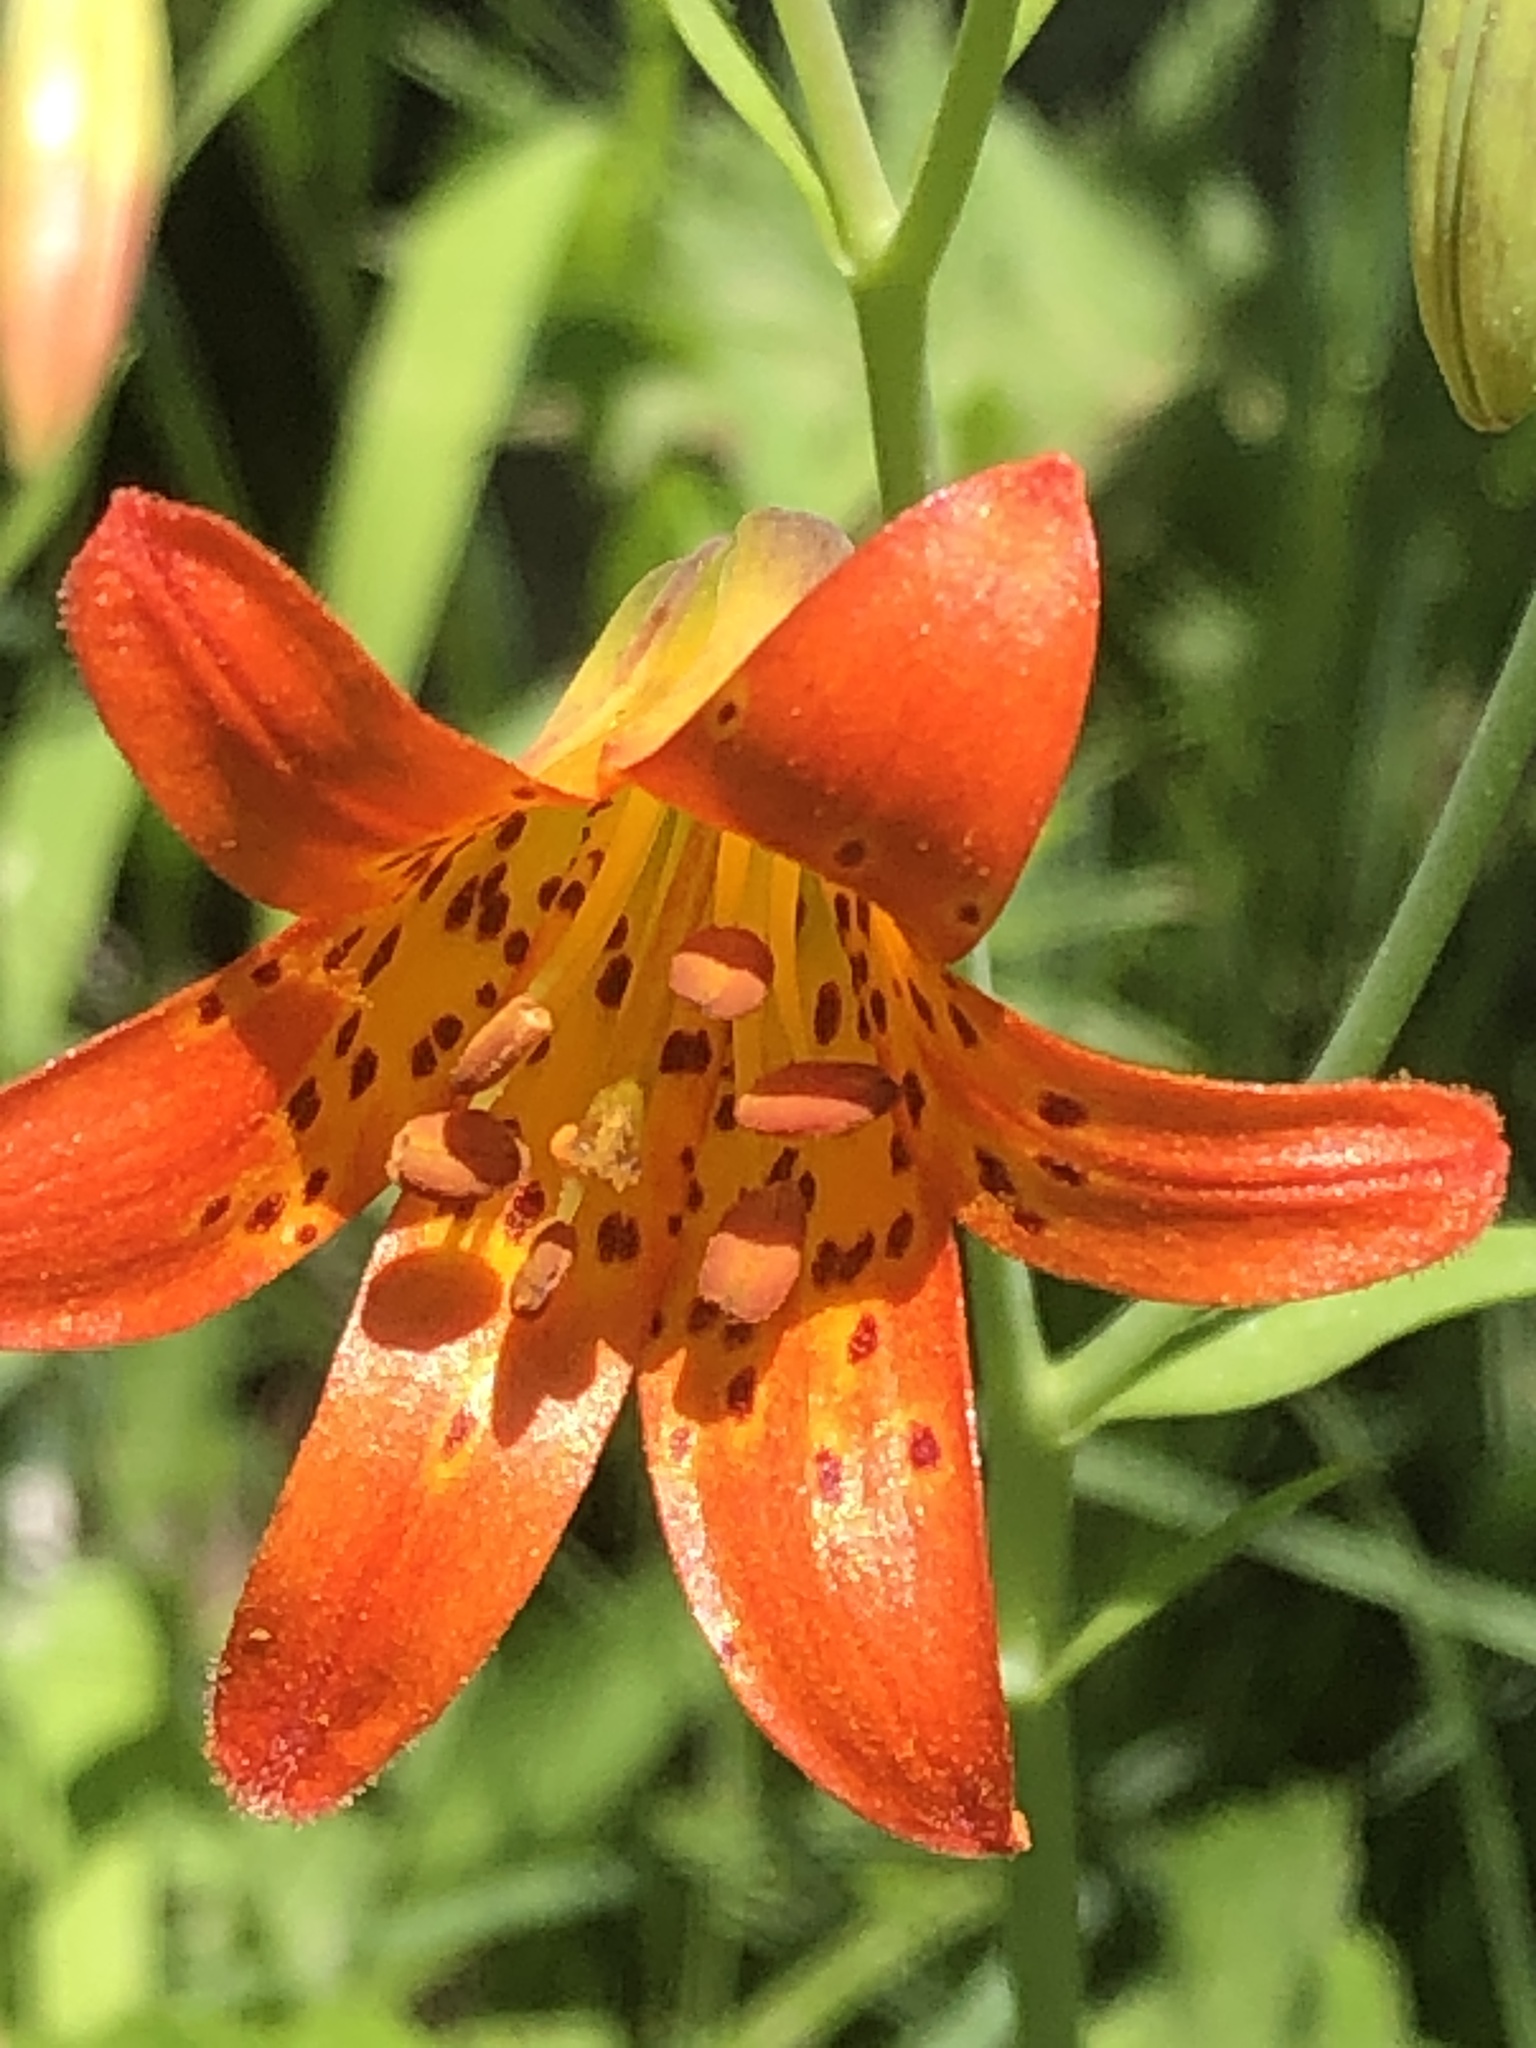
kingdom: Plantae
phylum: Tracheophyta
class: Liliopsida
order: Liliales
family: Liliaceae
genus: Lilium
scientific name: Lilium parvum
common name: Alpine lily
